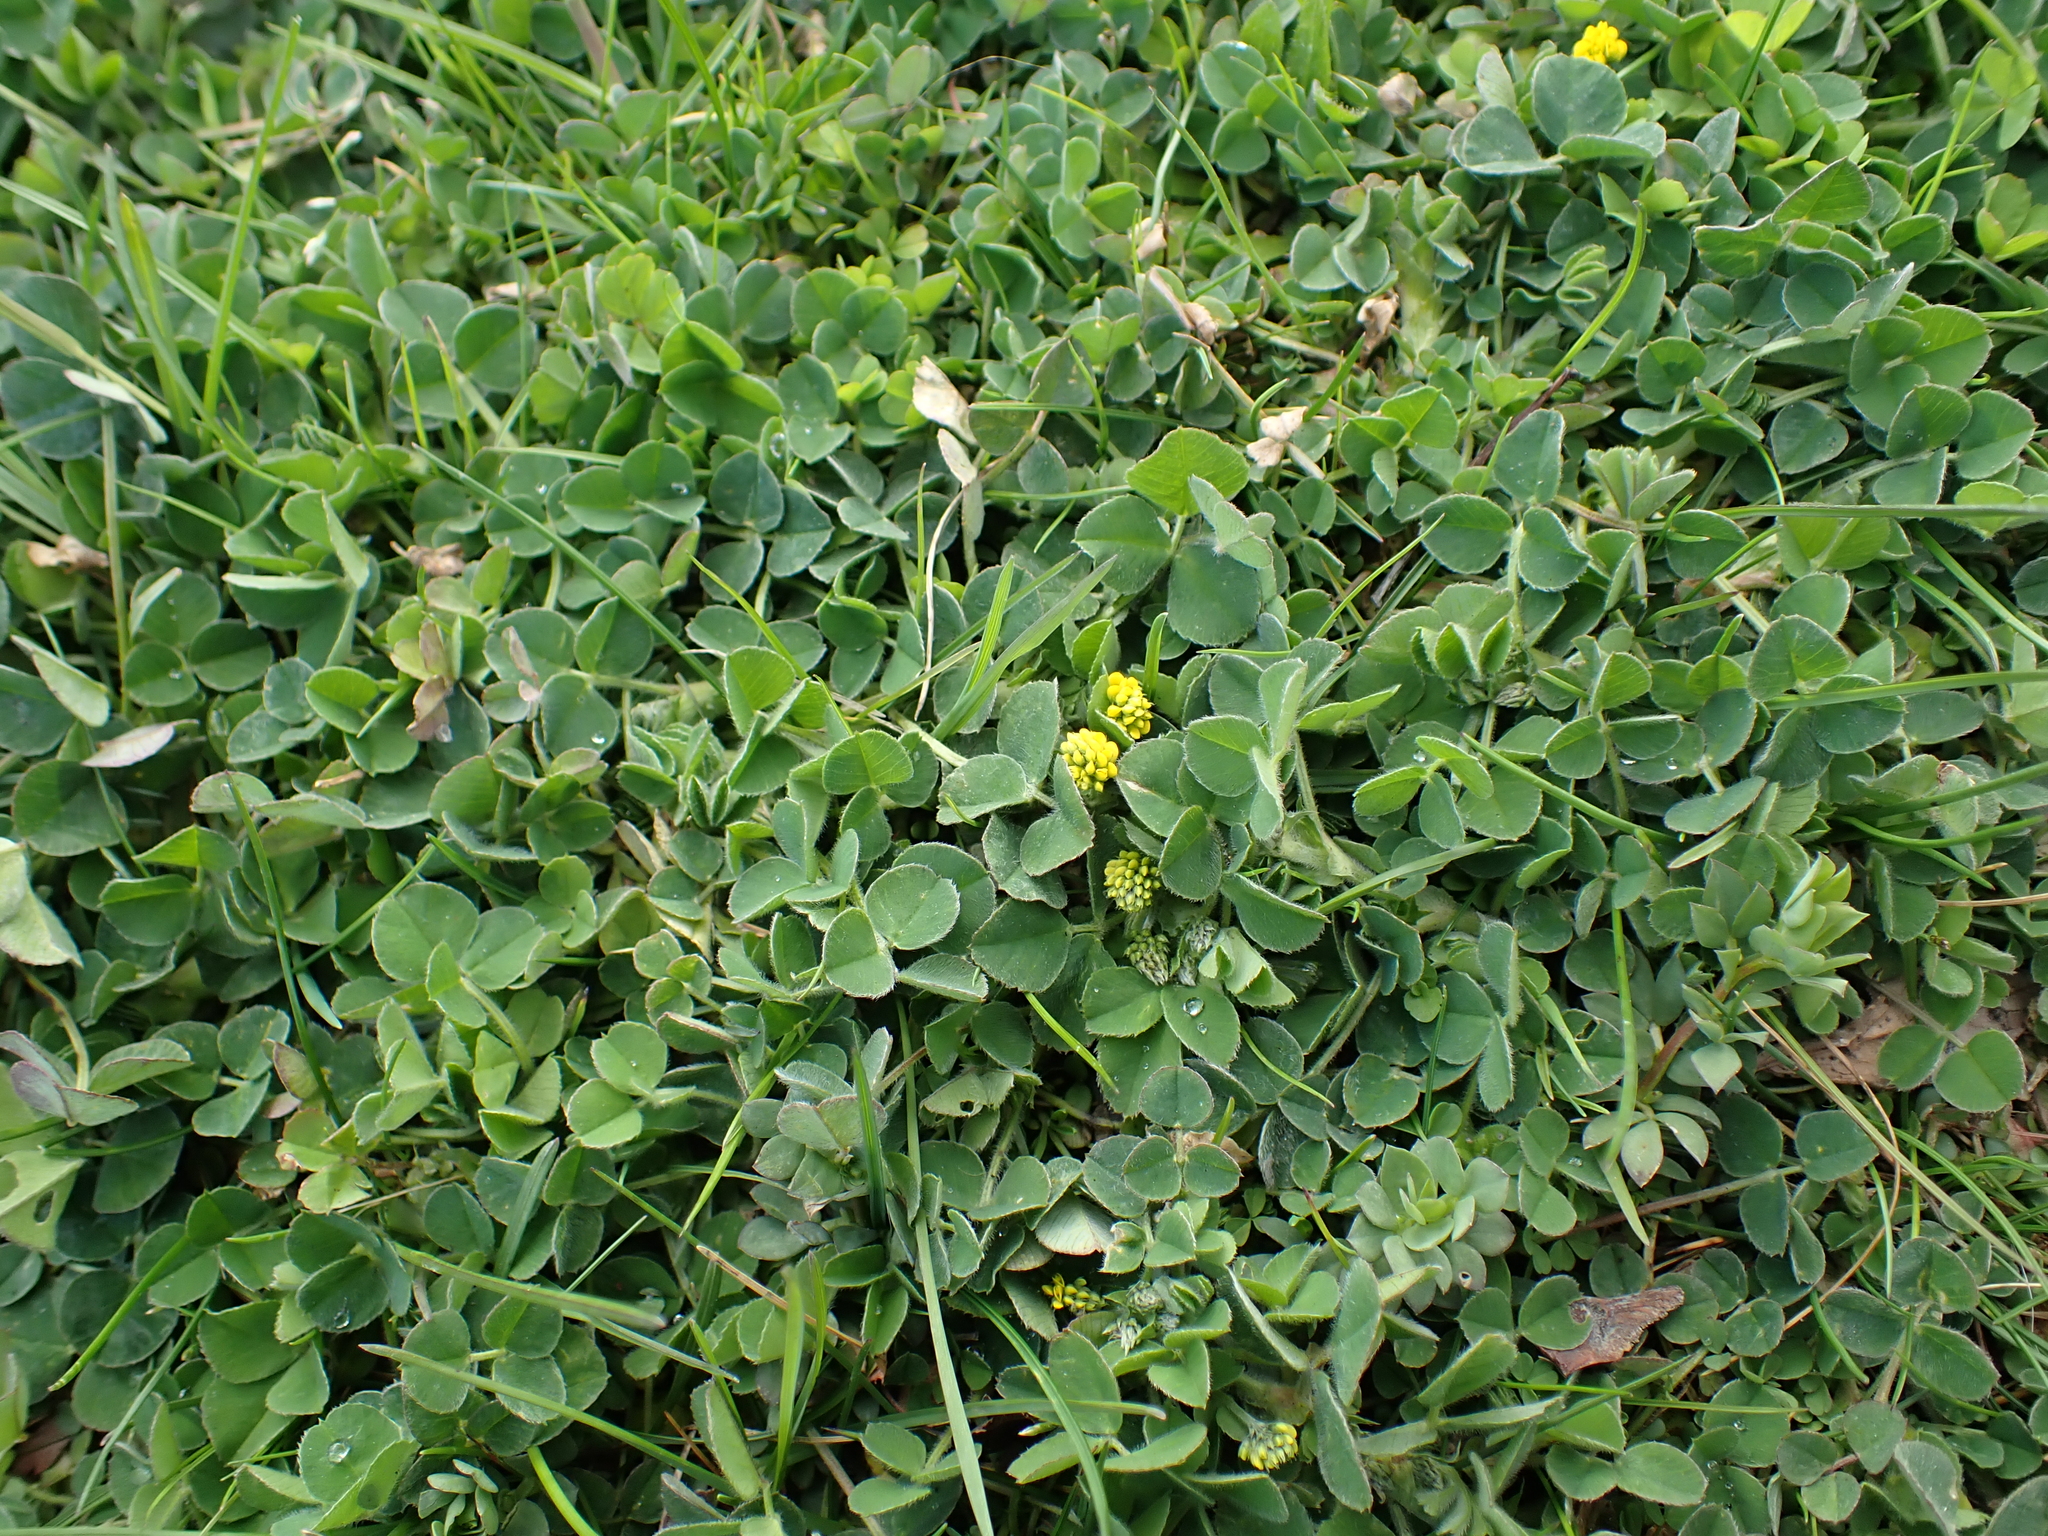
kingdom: Plantae
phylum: Tracheophyta
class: Magnoliopsida
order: Fabales
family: Fabaceae
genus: Medicago
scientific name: Medicago lupulina
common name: Black medick
